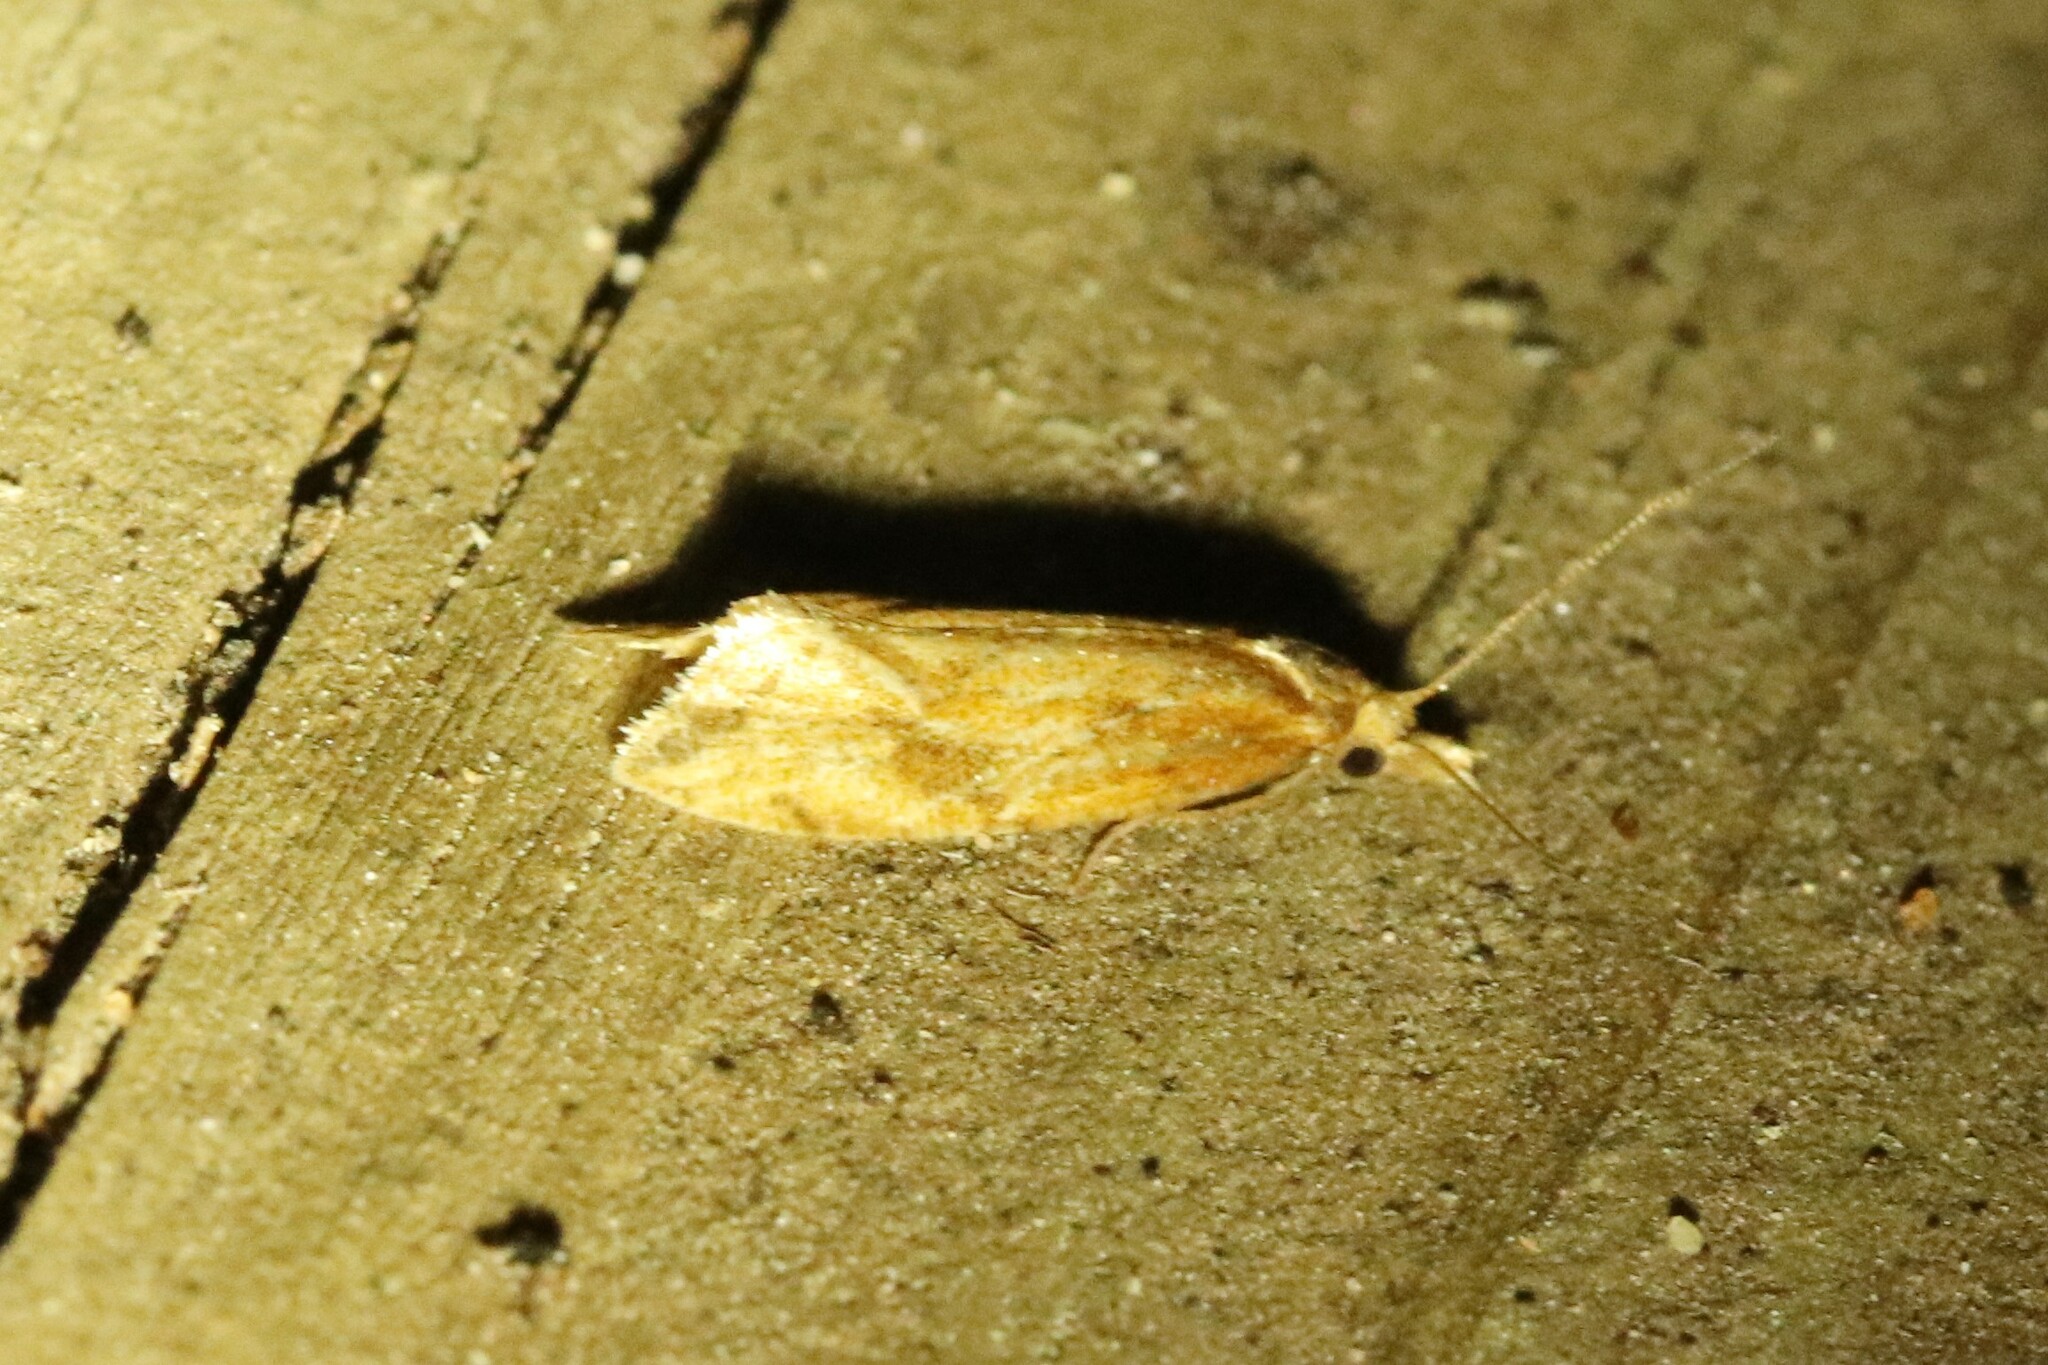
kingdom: Animalia
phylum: Arthropoda
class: Insecta
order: Lepidoptera
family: Tortricidae
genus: Aethes
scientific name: Aethes biscana
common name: Reddish aethes
